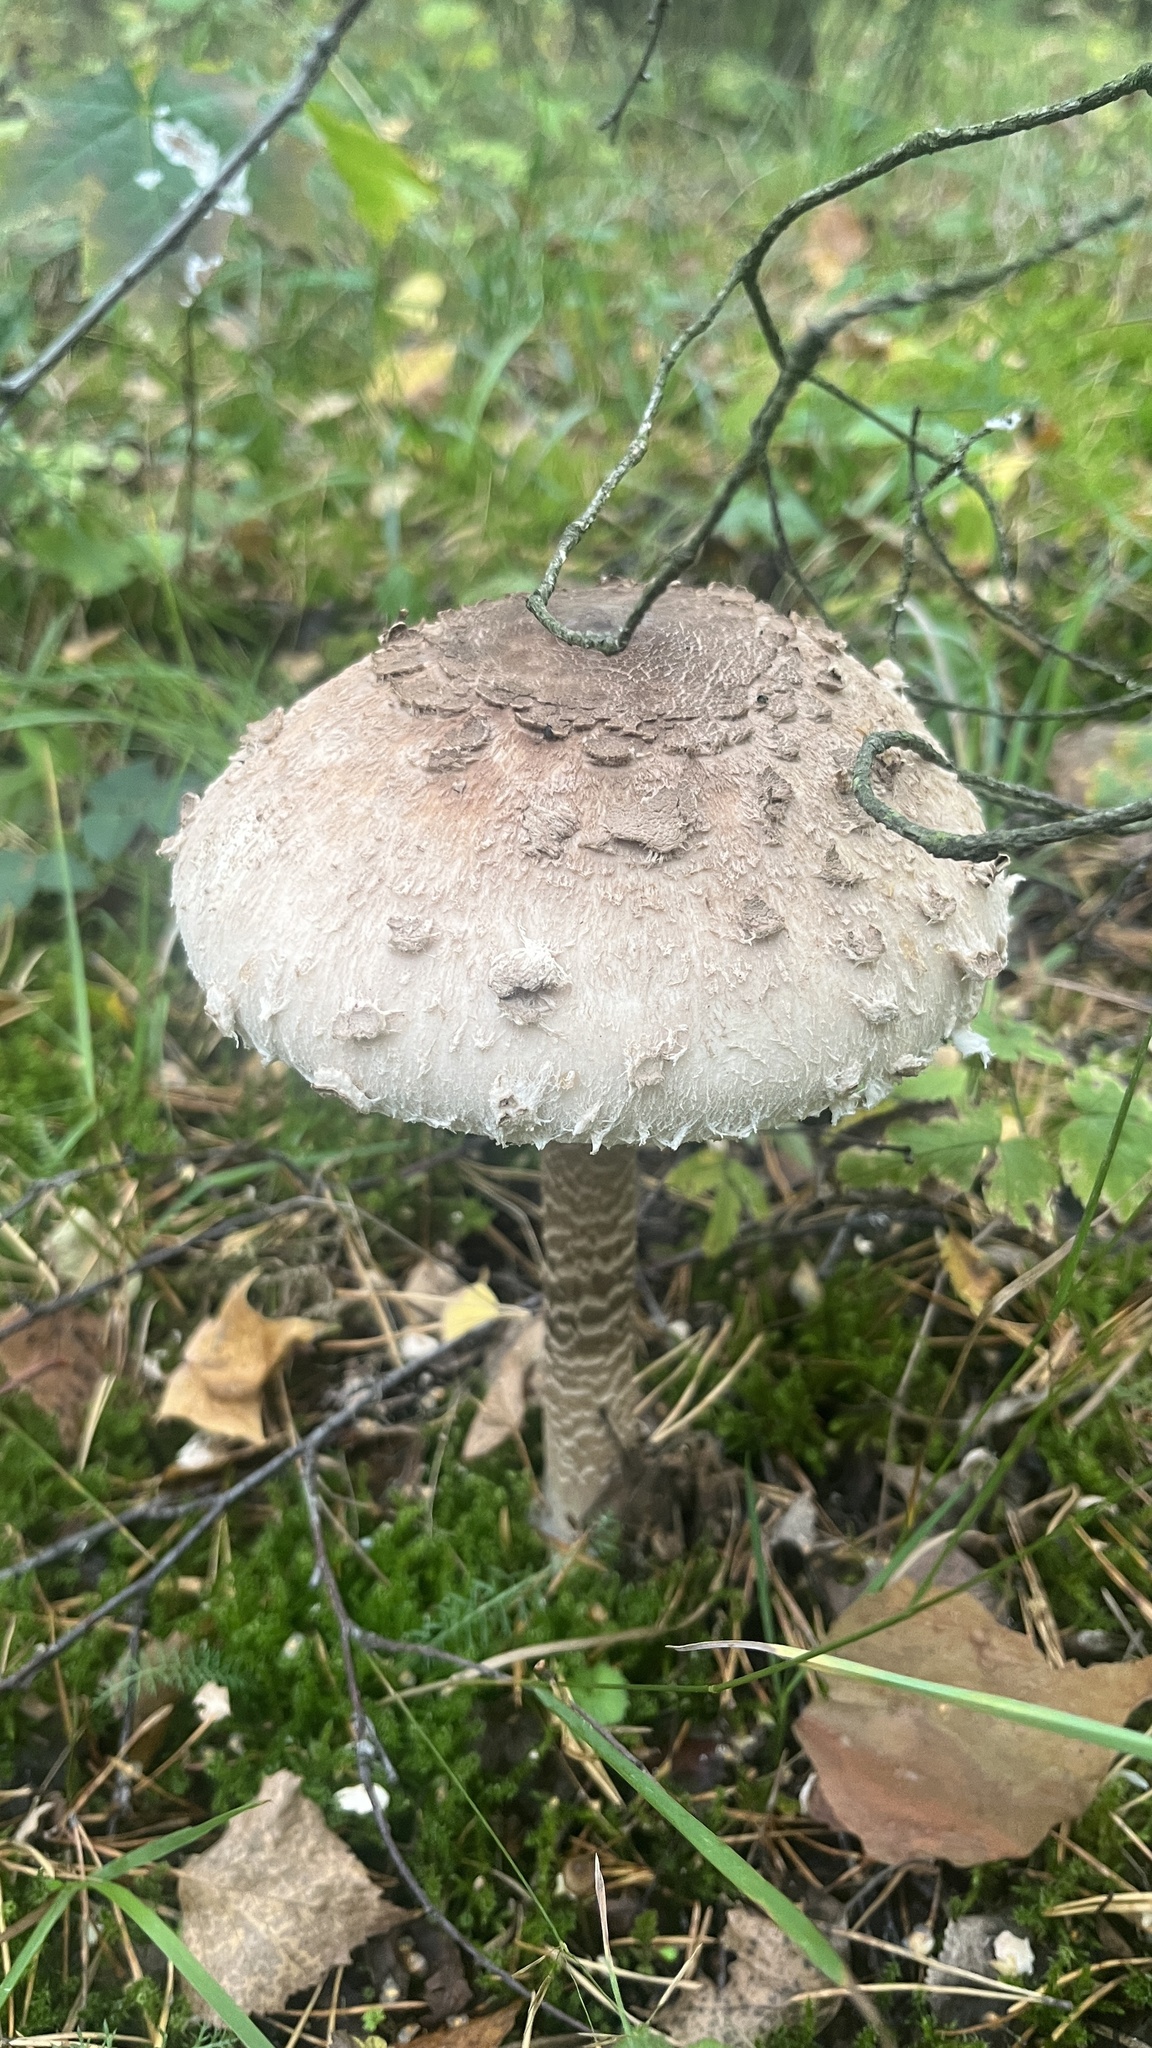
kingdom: Fungi
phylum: Basidiomycota
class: Agaricomycetes
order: Agaricales
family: Agaricaceae
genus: Macrolepiota
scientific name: Macrolepiota procera
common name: Parasol
